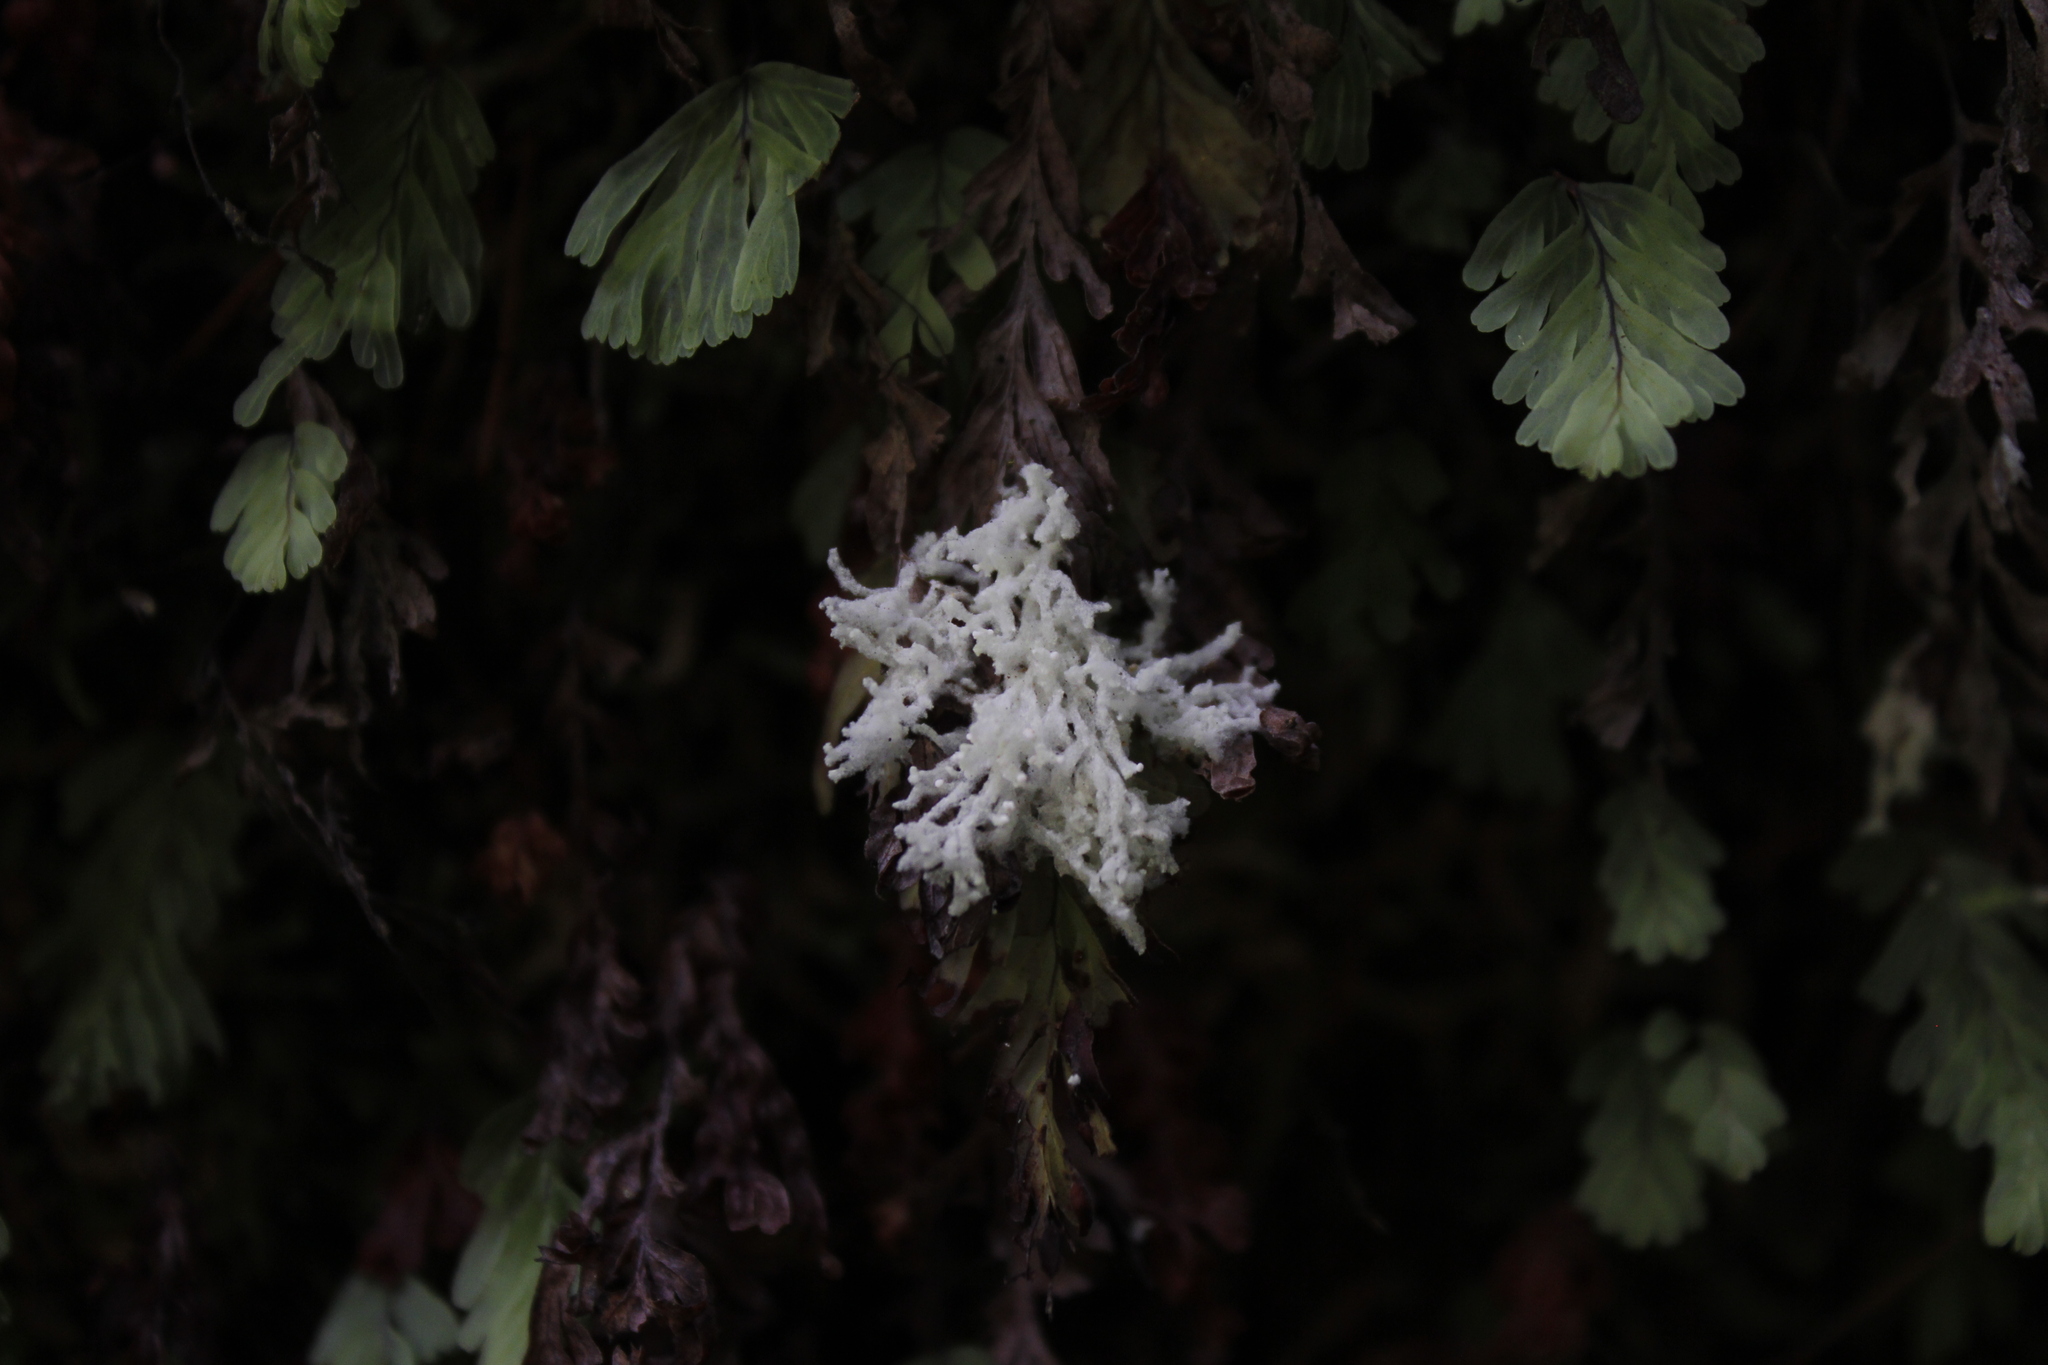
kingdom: Fungi
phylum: Ascomycota
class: Lecanoromycetes
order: Lecanorales
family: Byssolomataceae
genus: Roccellinastrum
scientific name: Roccellinastrum neglectum
